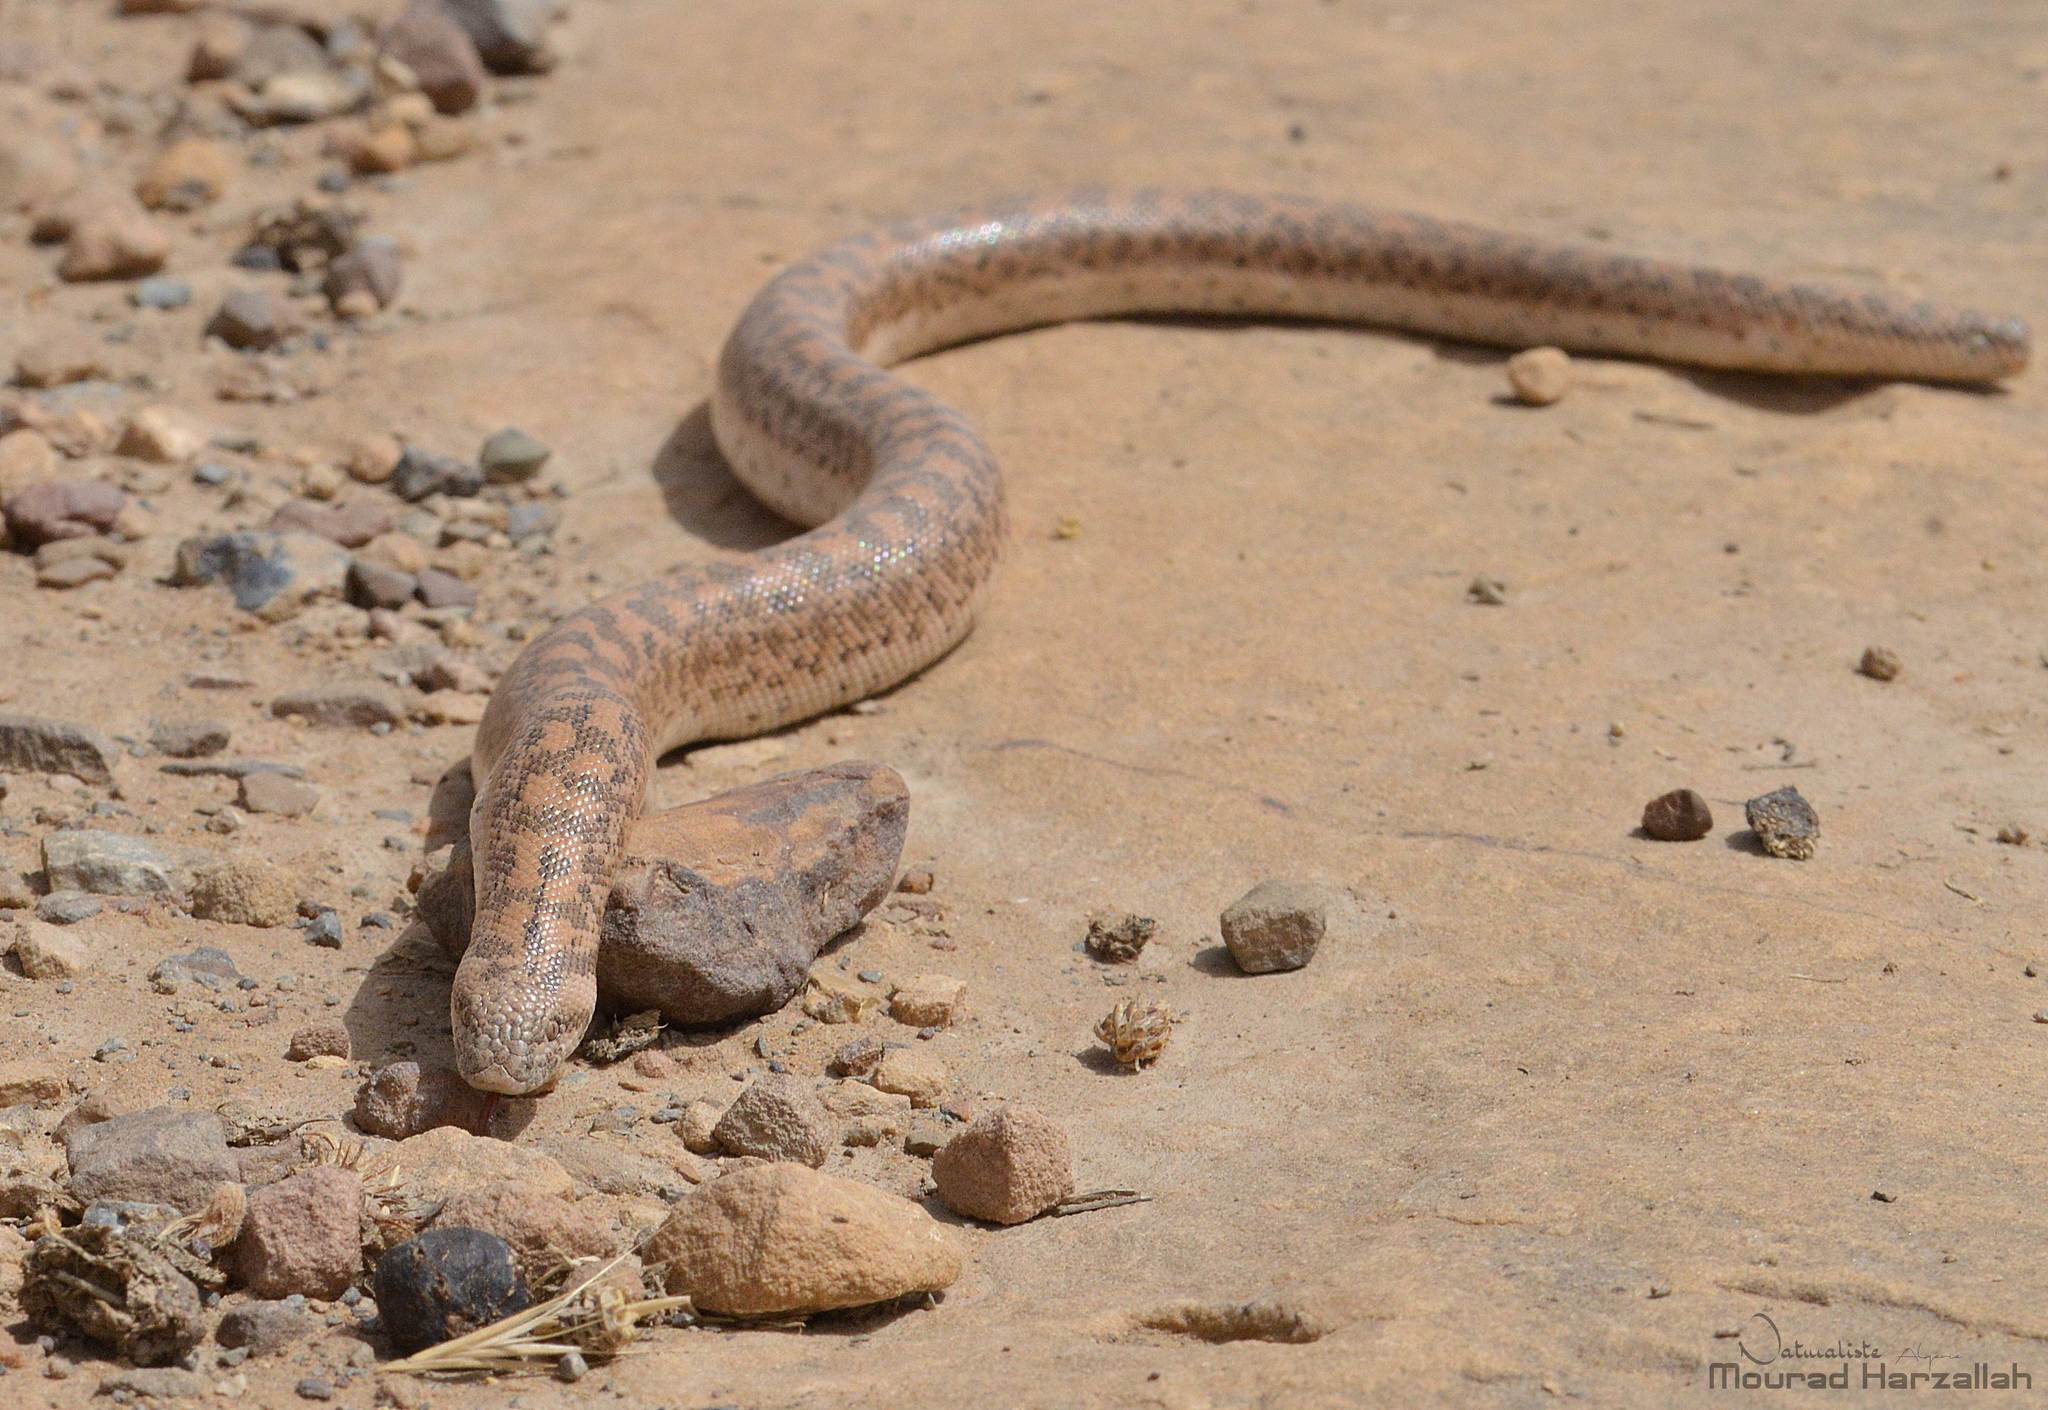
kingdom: Animalia
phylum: Chordata
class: Squamata
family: Boidae
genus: Eryx
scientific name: Eryx jaculus
